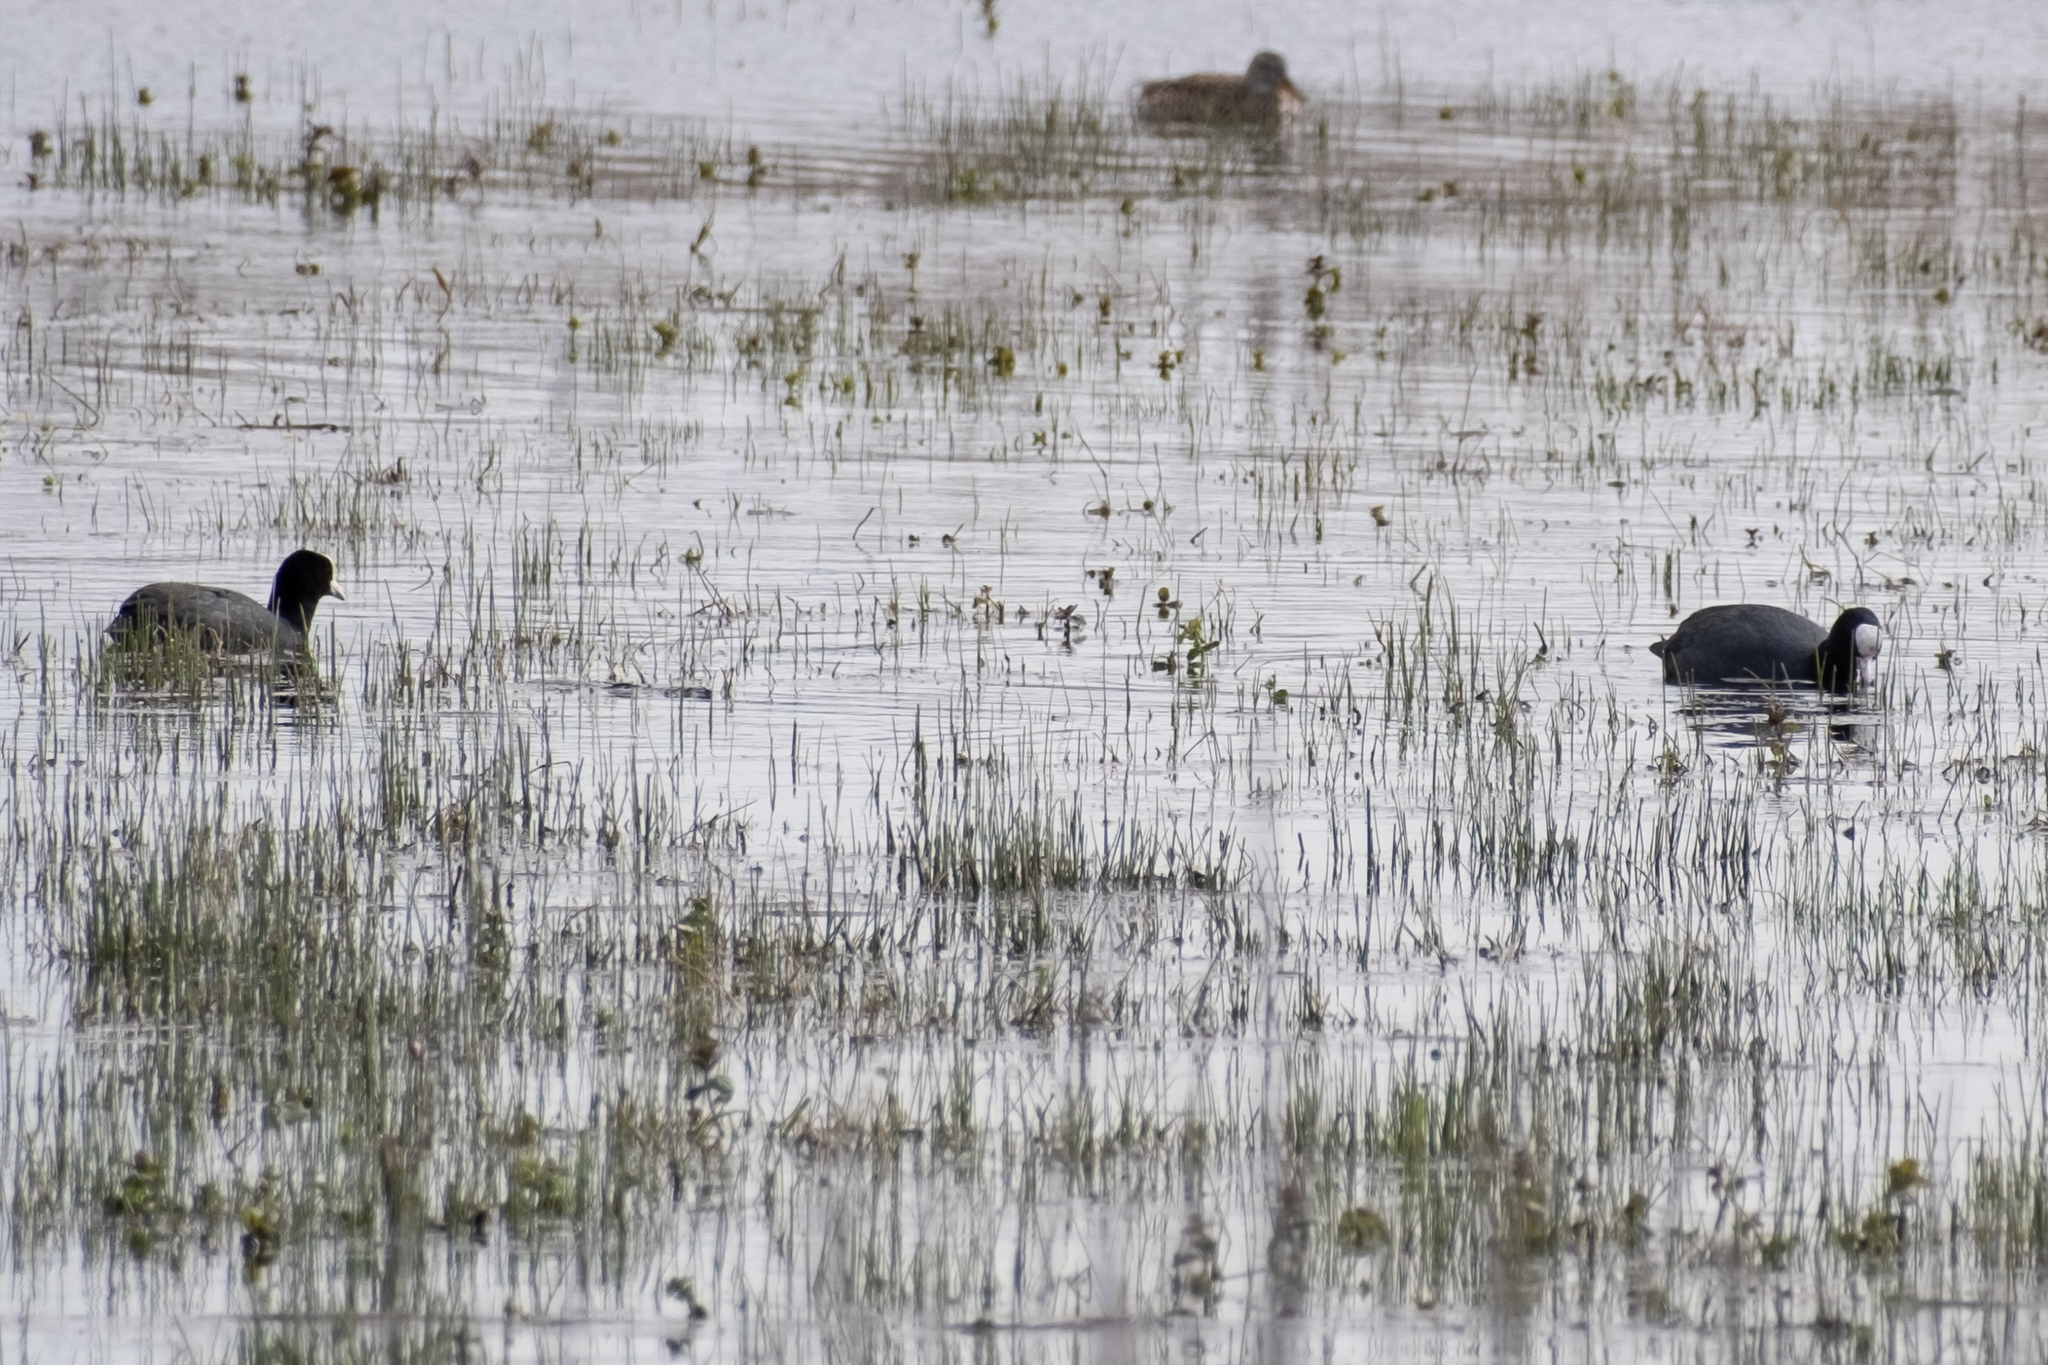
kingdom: Animalia
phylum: Chordata
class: Aves
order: Gruiformes
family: Rallidae
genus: Fulica
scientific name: Fulica atra
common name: Eurasian coot
